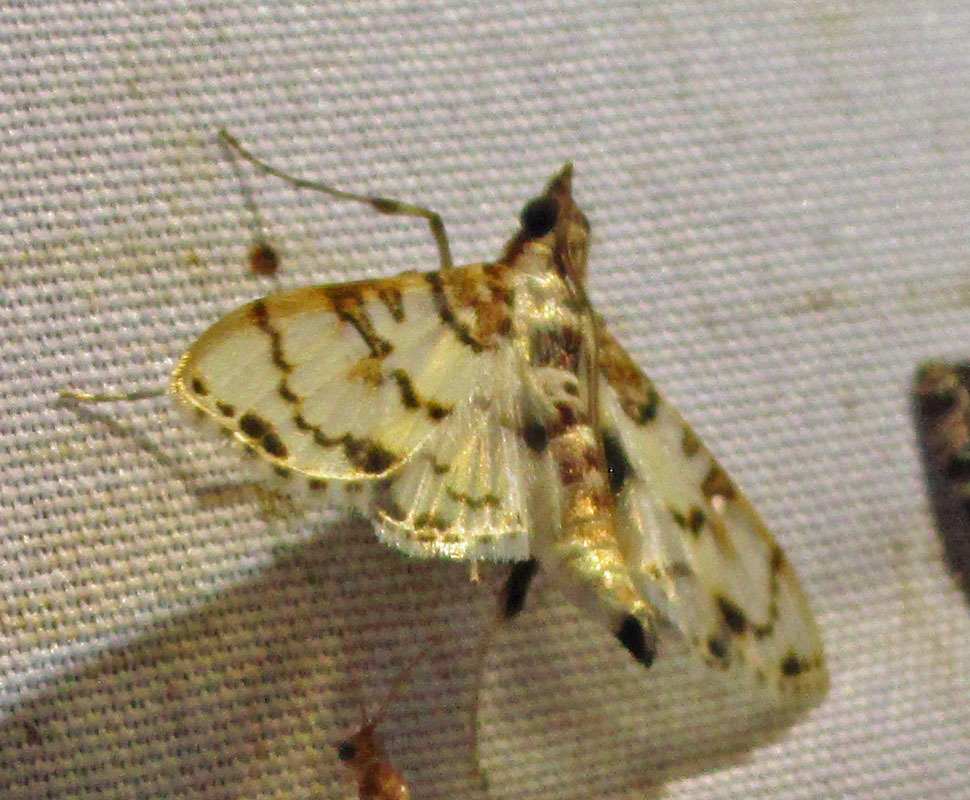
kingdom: Animalia
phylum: Arthropoda
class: Insecta
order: Lepidoptera
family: Crambidae
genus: Azochis
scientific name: Azochis rufidiscalis
